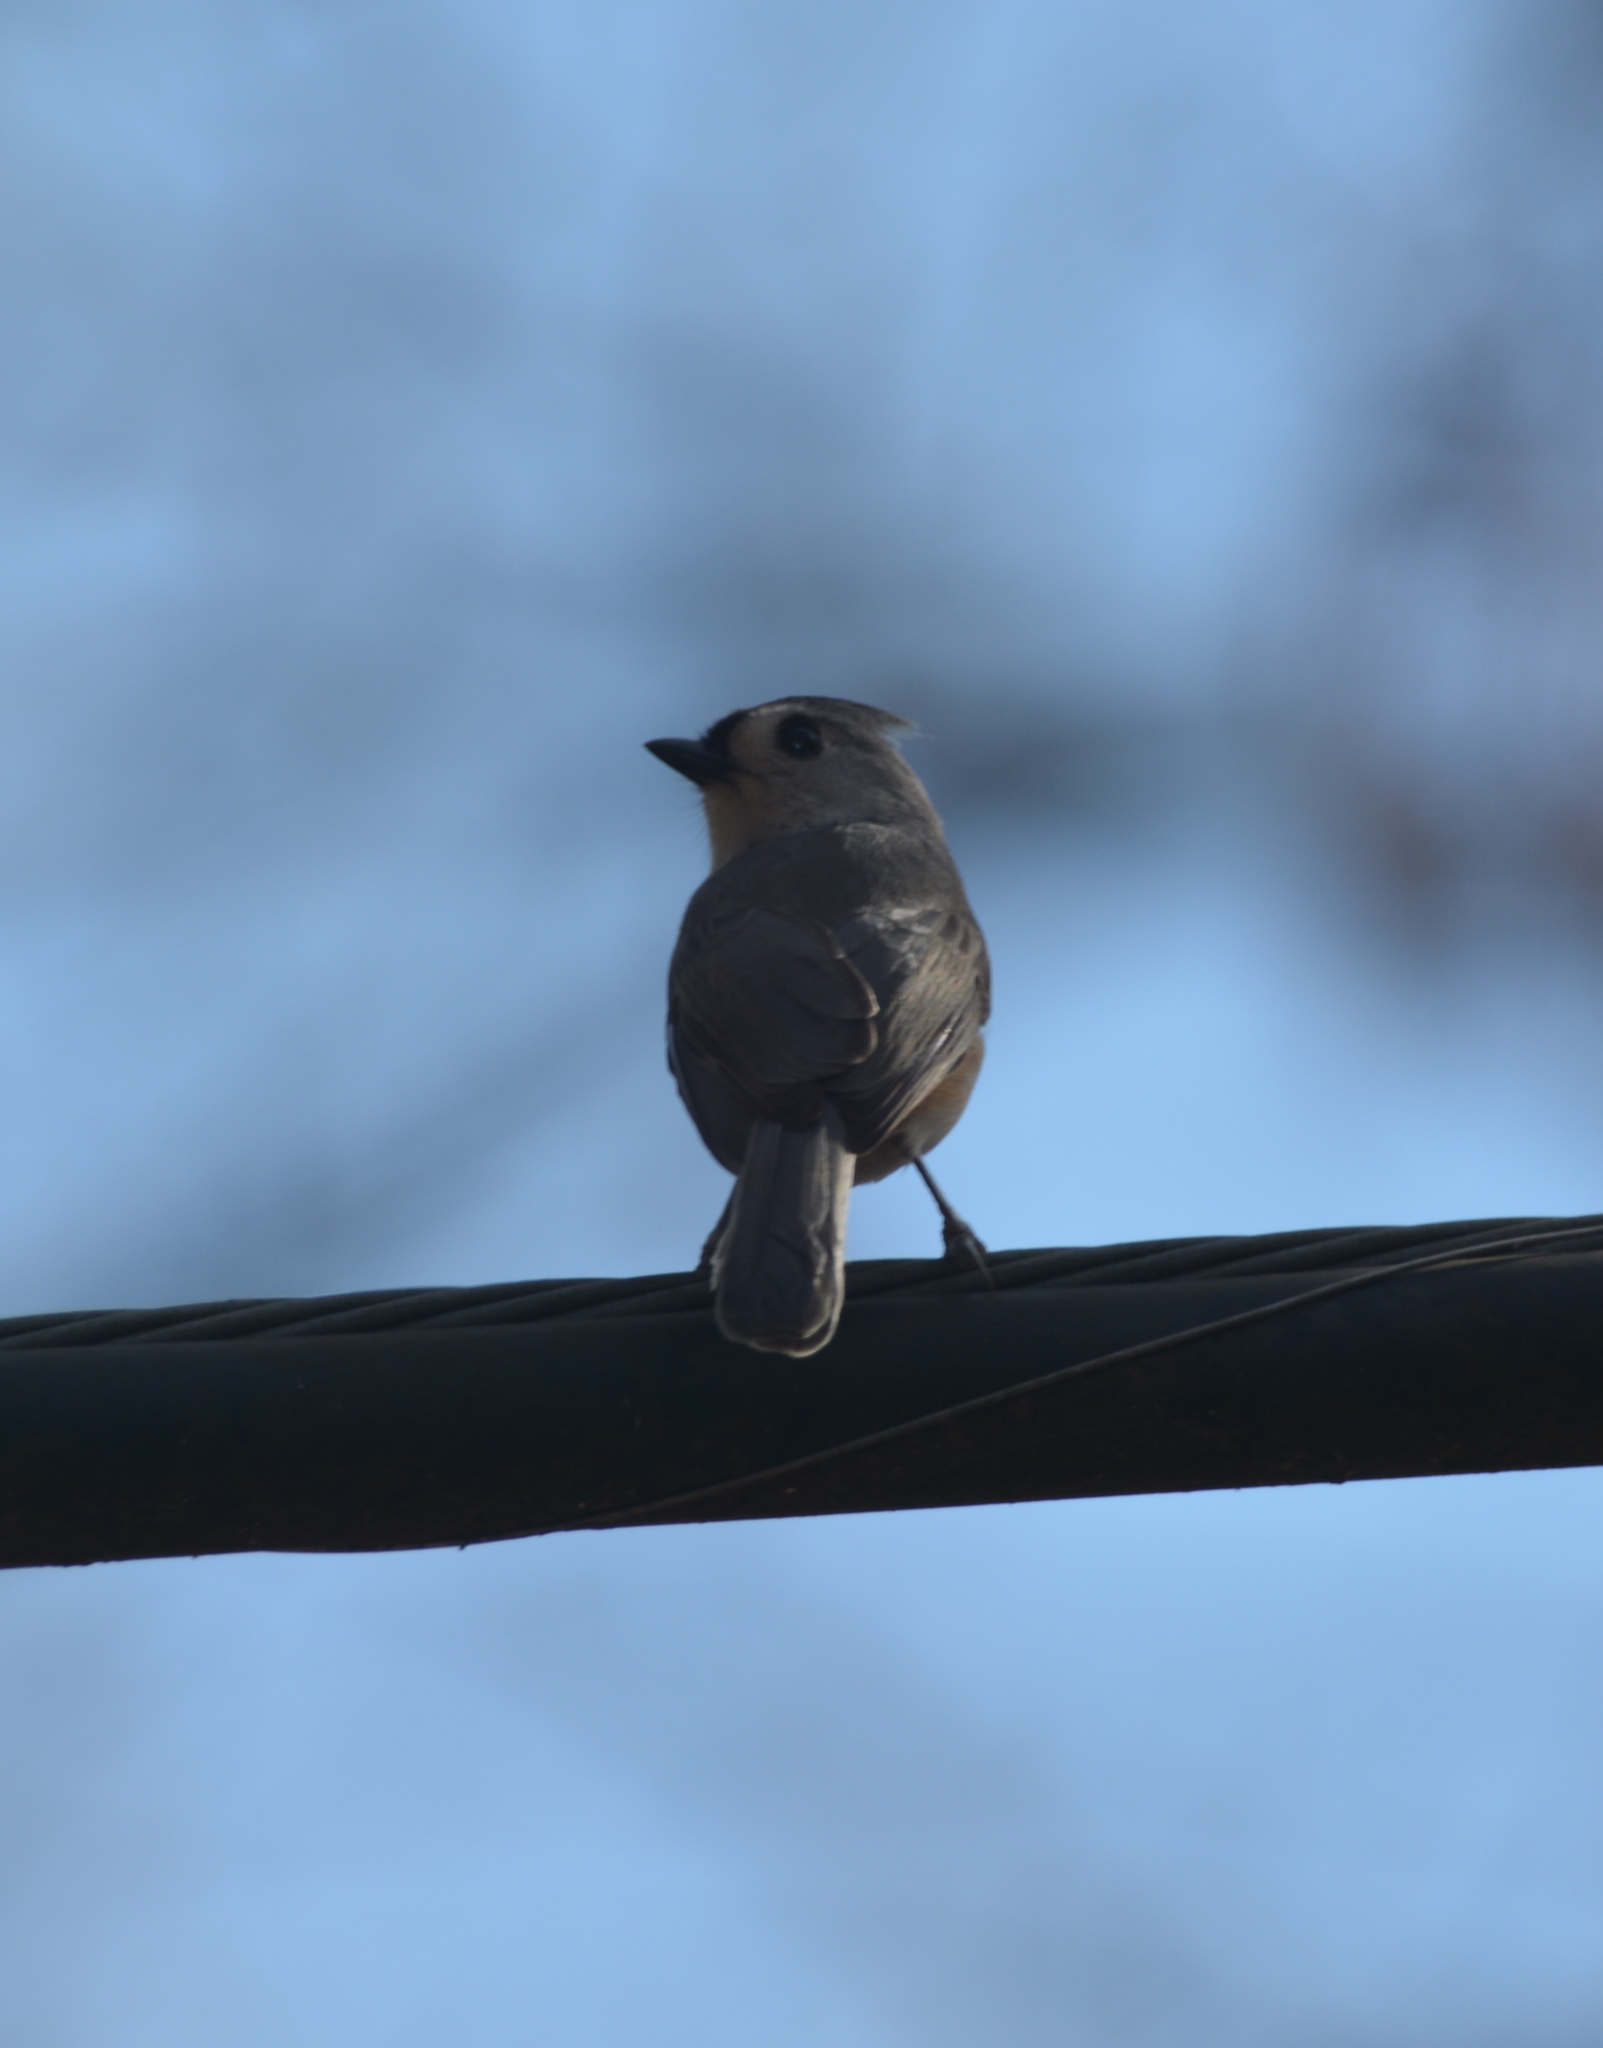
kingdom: Animalia
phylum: Chordata
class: Aves
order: Passeriformes
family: Paridae
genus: Baeolophus
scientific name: Baeolophus bicolor
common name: Tufted titmouse
